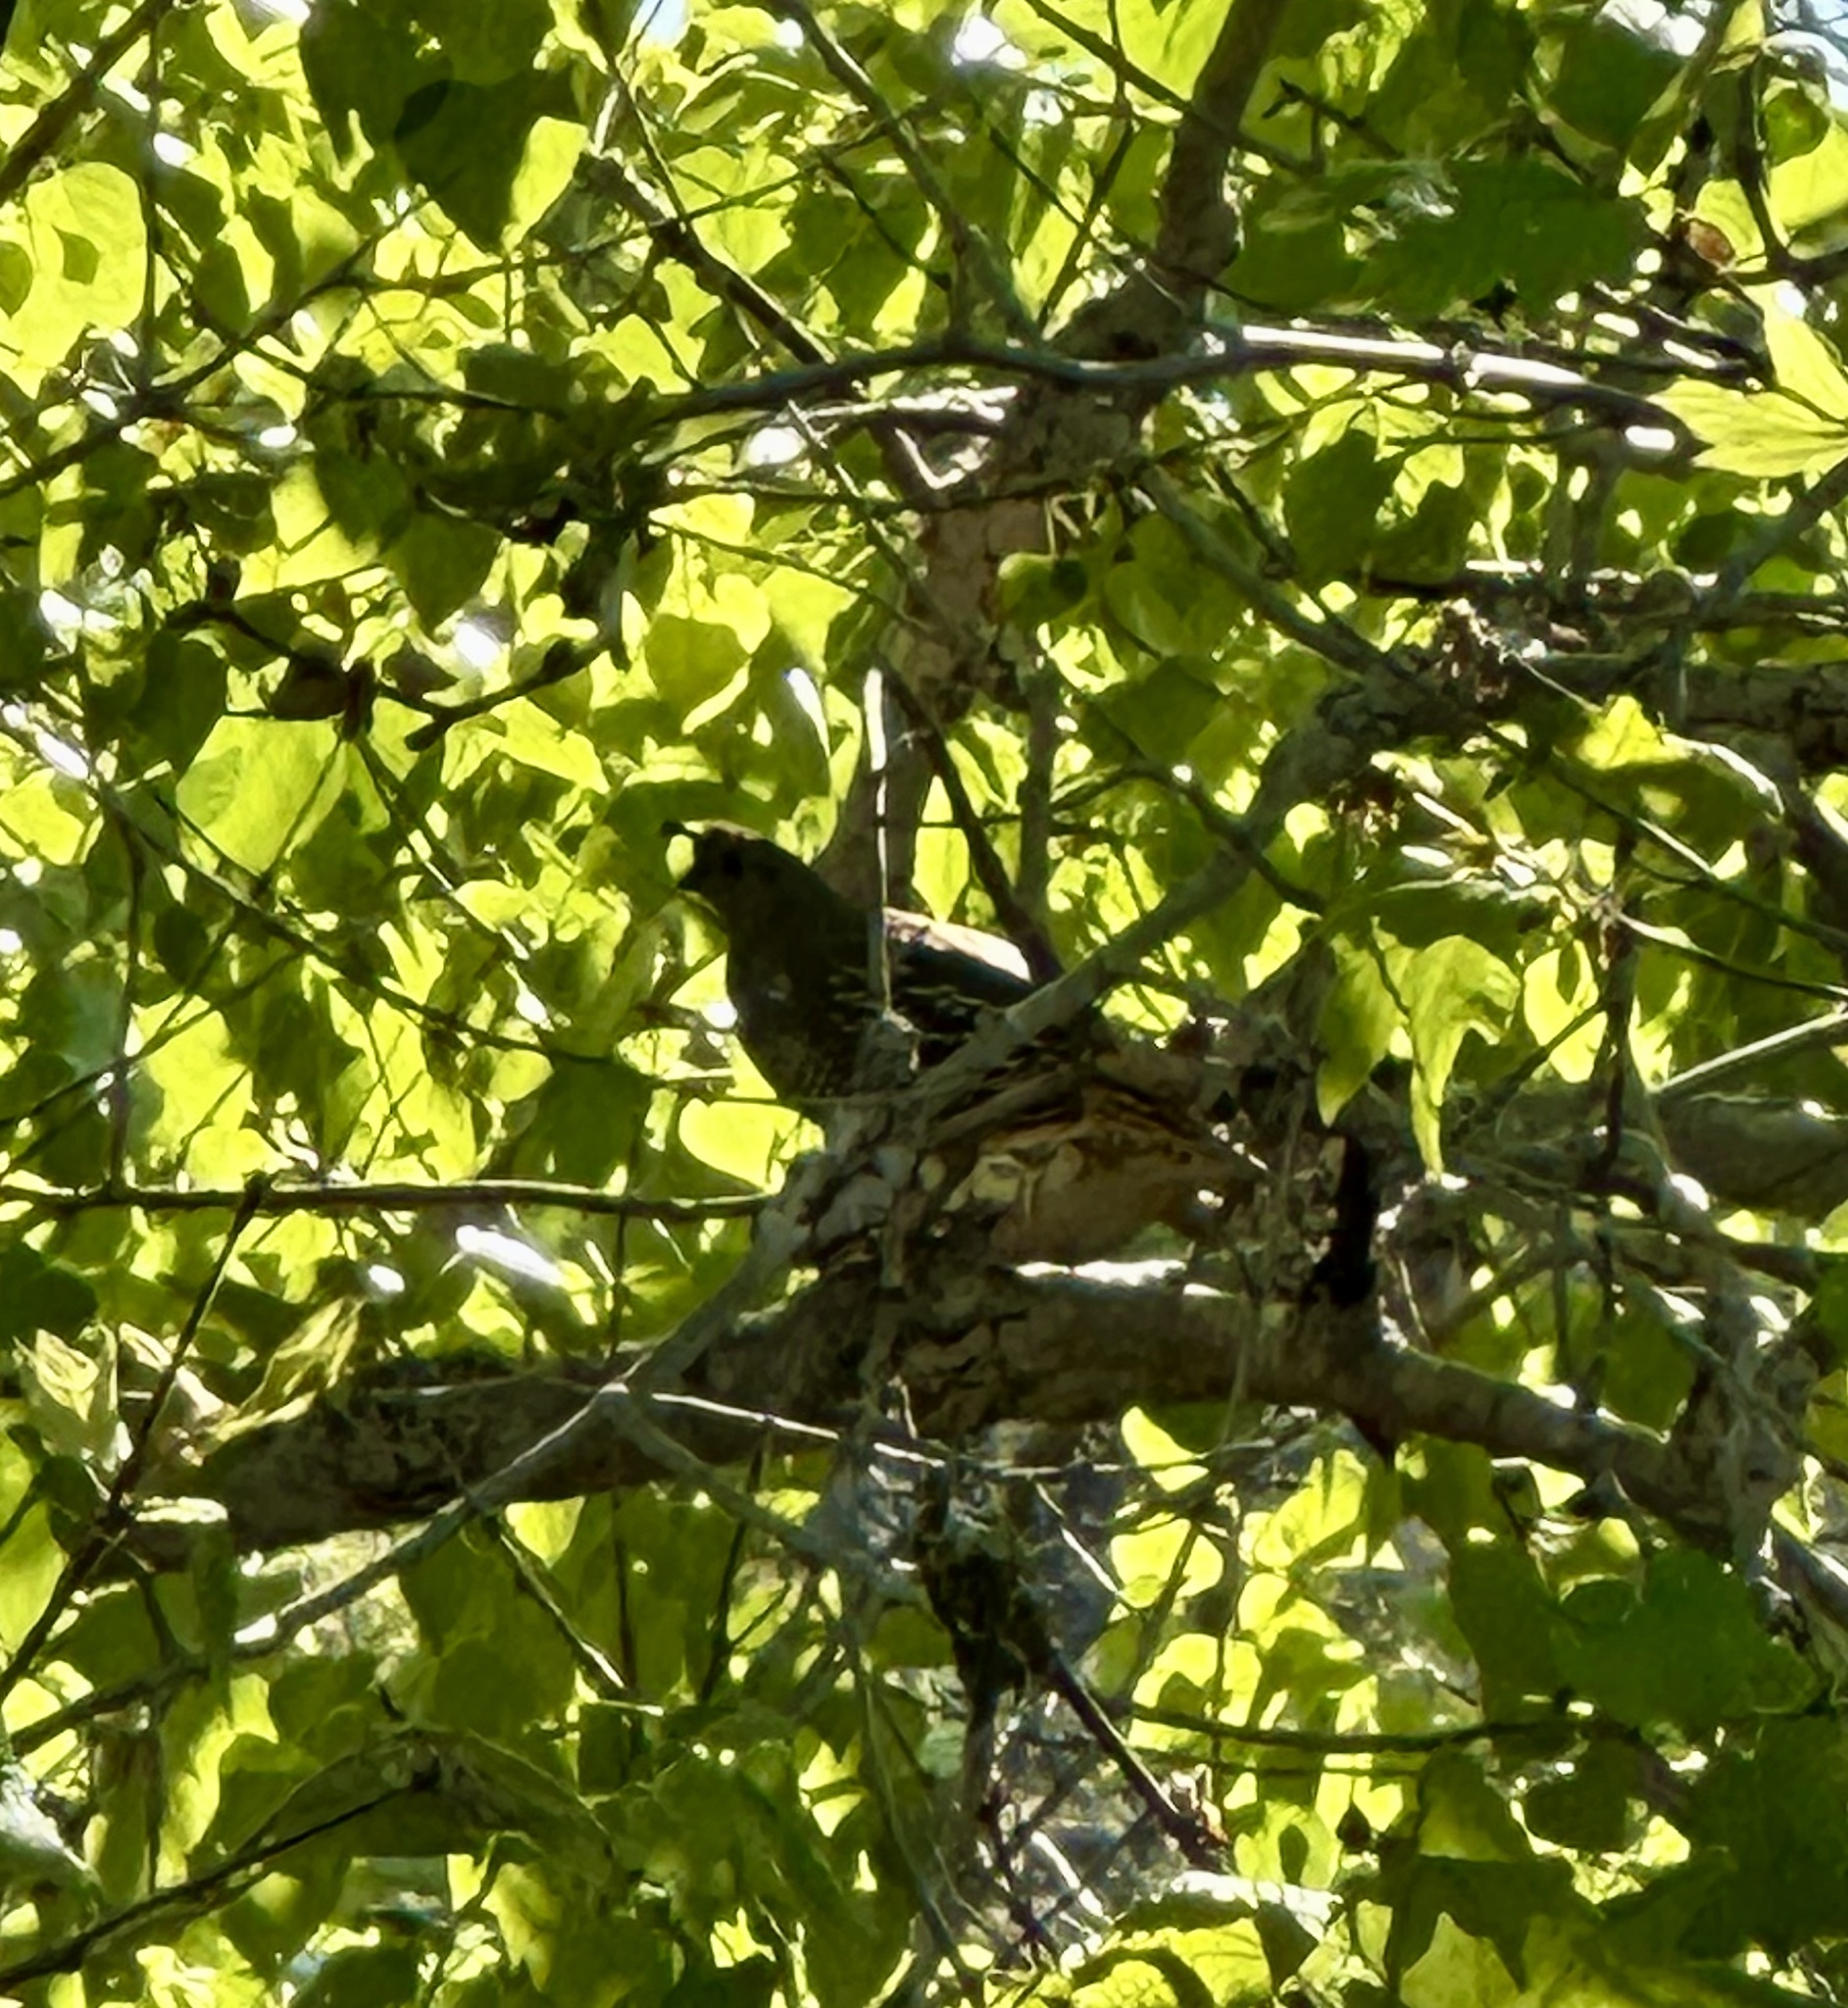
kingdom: Animalia
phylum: Chordata
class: Aves
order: Galliformes
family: Odontophoridae
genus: Callipepla
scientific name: Callipepla californica
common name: California quail
